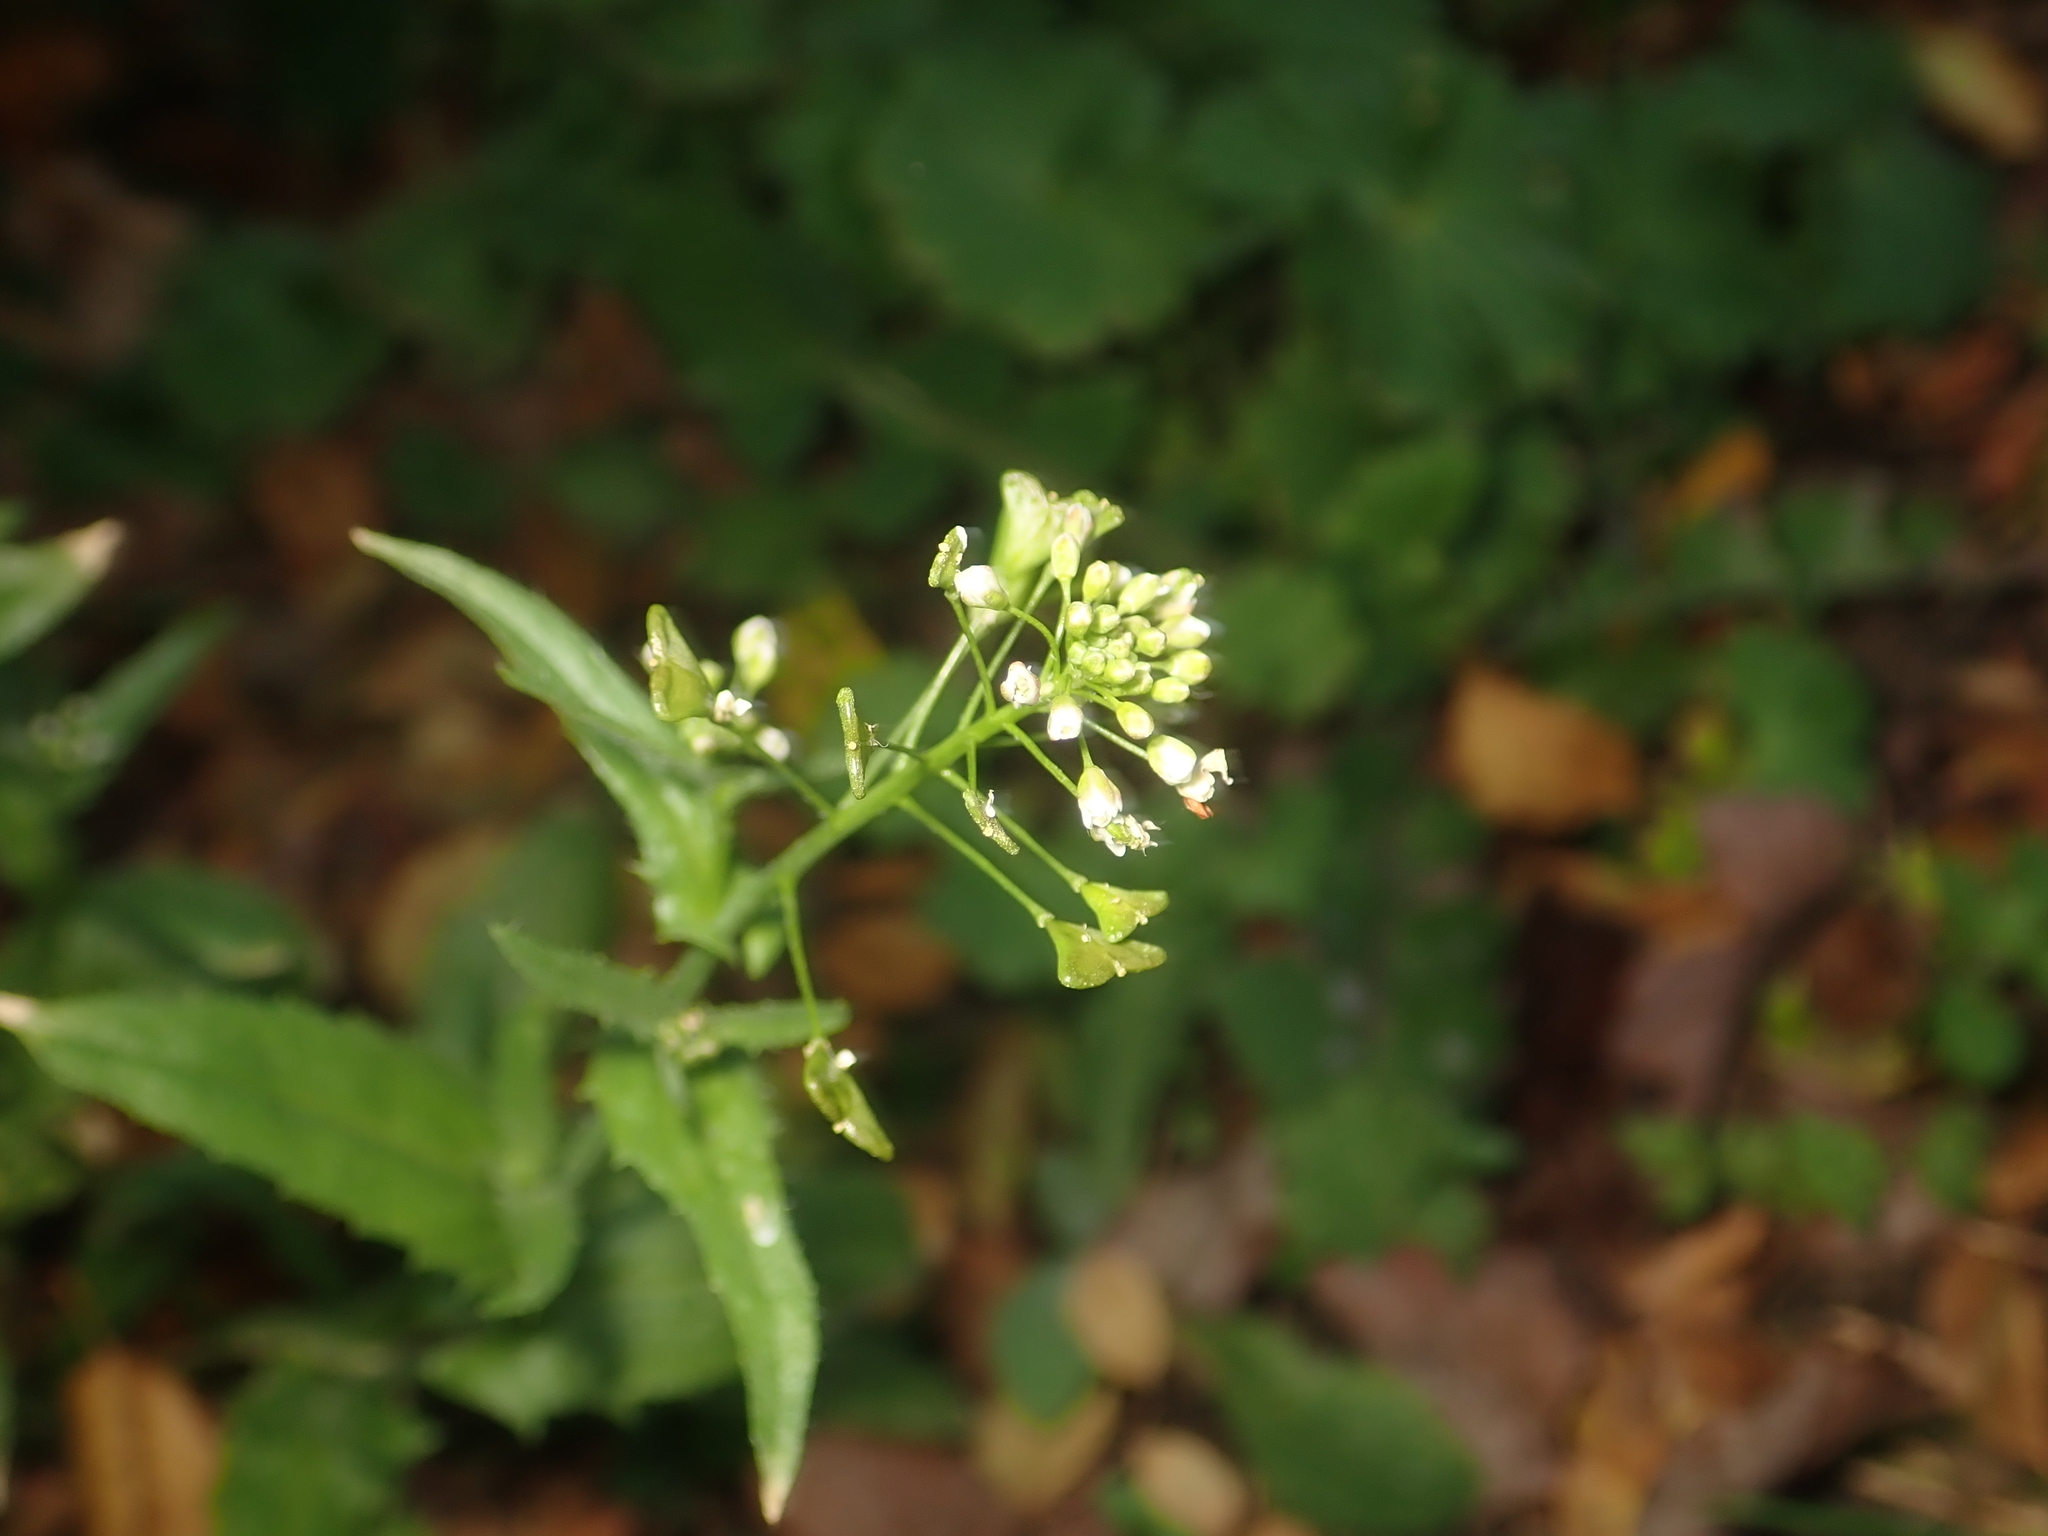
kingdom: Plantae
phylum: Tracheophyta
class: Magnoliopsida
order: Brassicales
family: Brassicaceae
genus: Capsella
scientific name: Capsella bursa-pastoris
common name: Shepherd's purse
